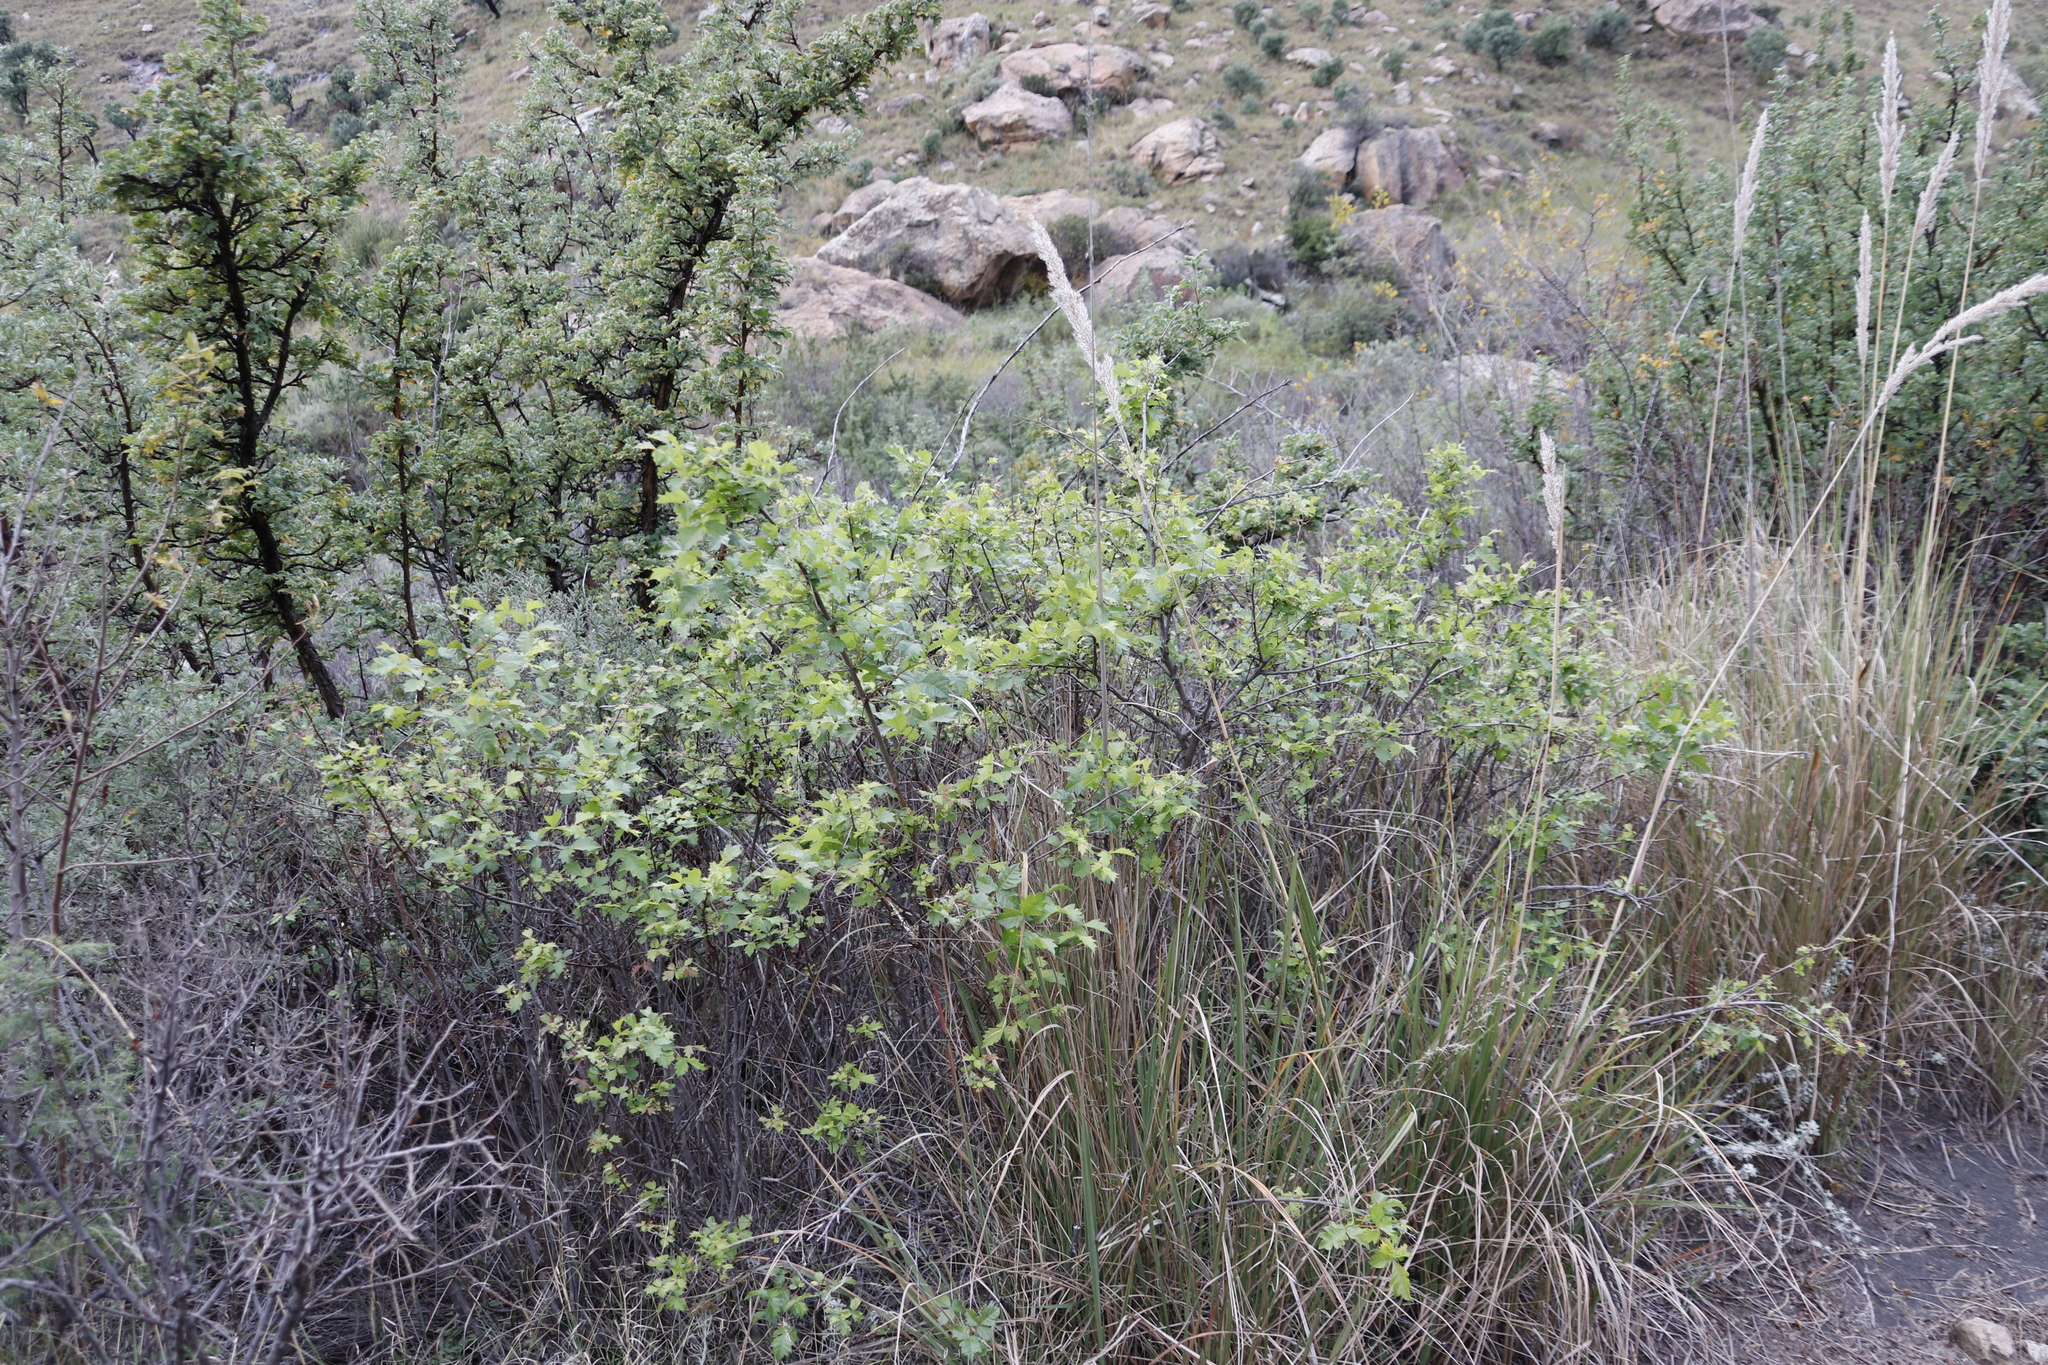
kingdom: Plantae
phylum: Tracheophyta
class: Magnoliopsida
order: Sapindales
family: Anacardiaceae
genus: Searsia
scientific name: Searsia dentata
